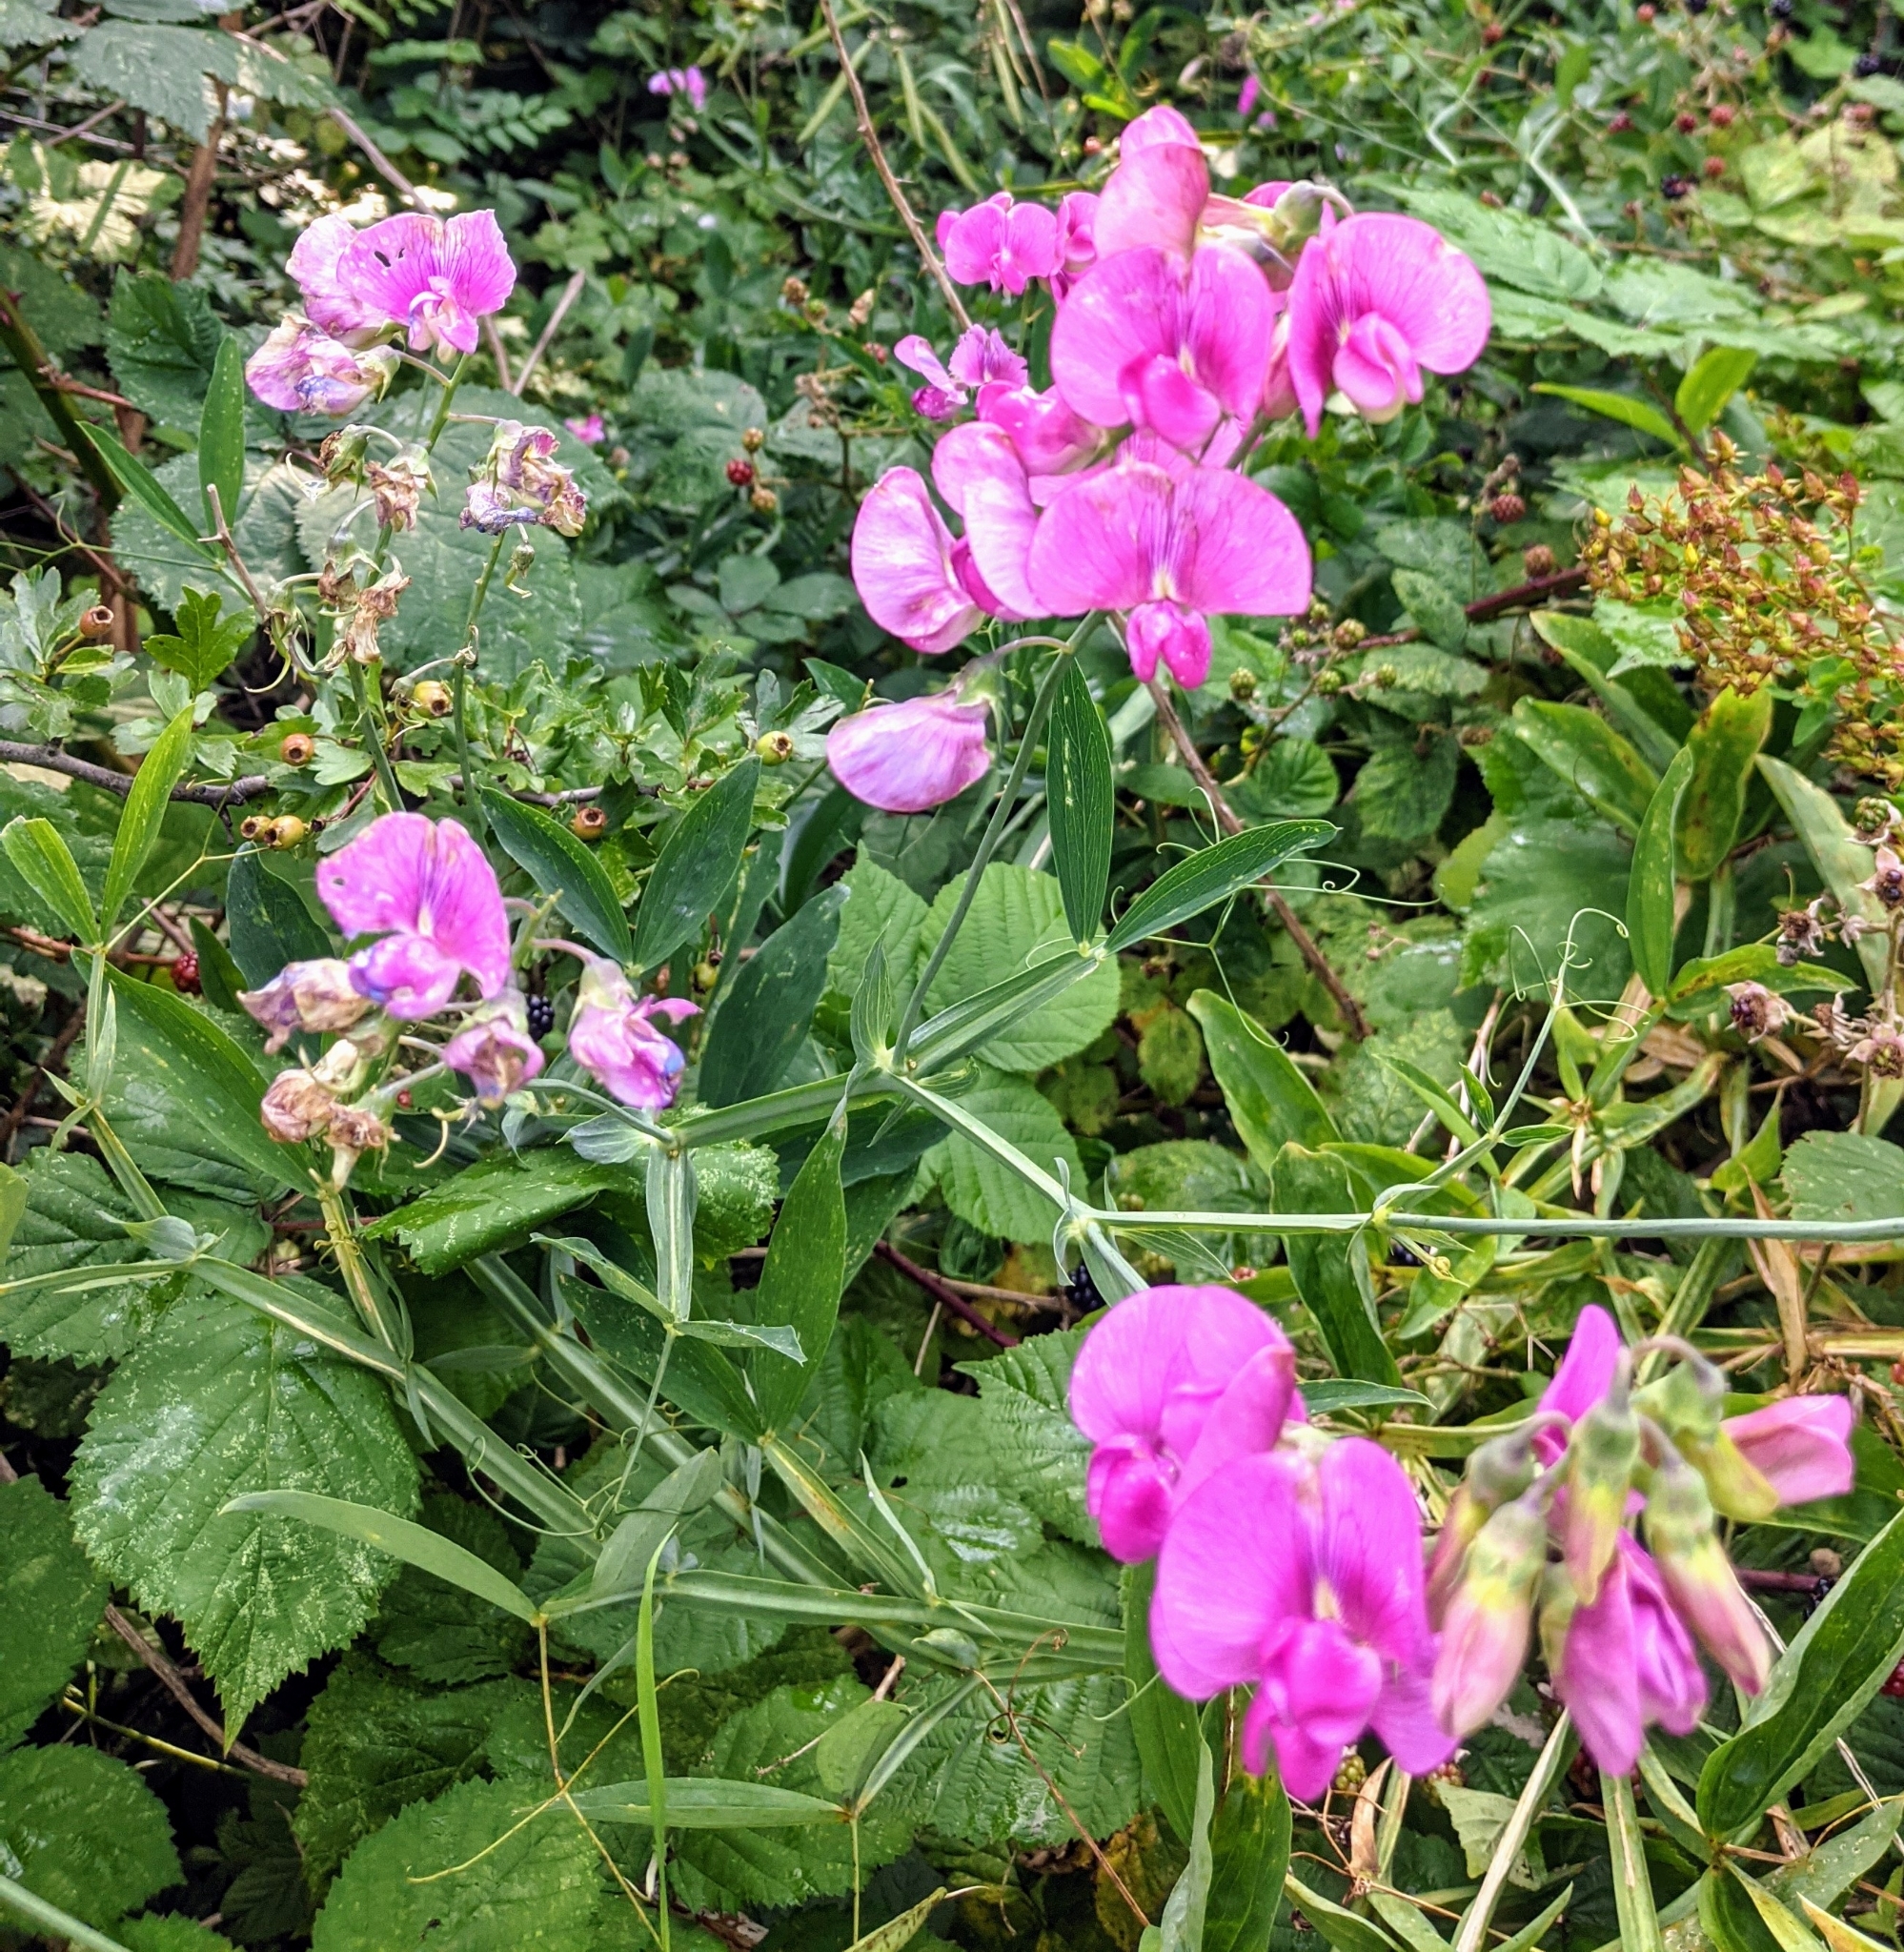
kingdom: Plantae
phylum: Tracheophyta
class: Magnoliopsida
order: Fabales
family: Fabaceae
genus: Lathyrus
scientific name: Lathyrus latifolius
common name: Perennial pea
